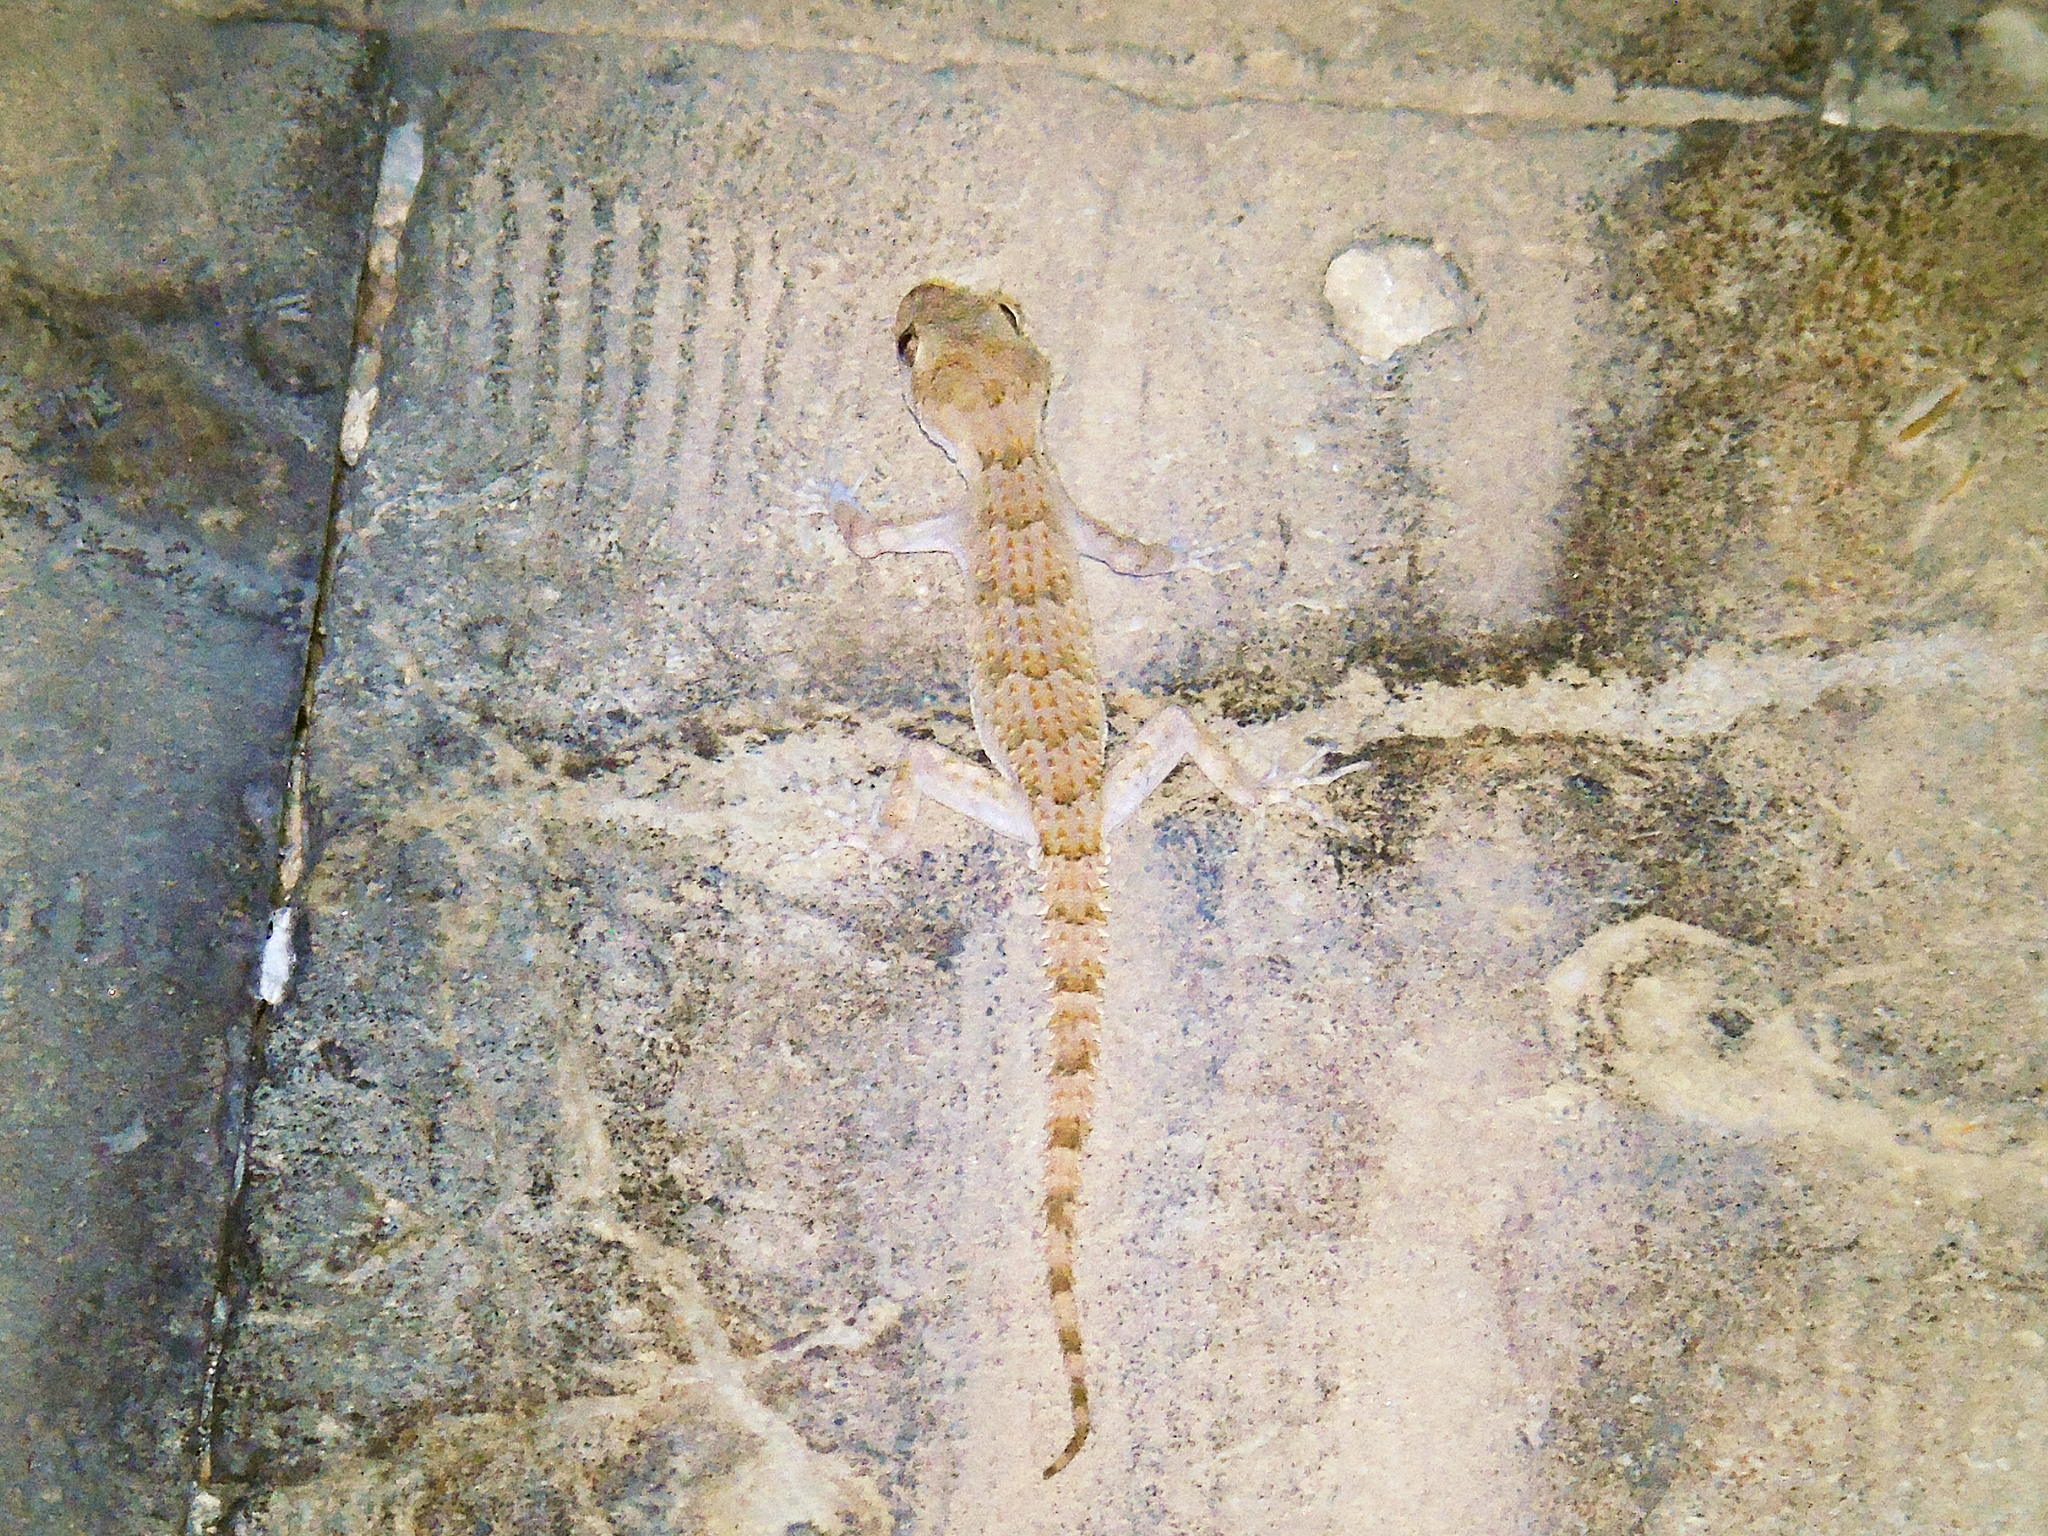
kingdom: Animalia
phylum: Chordata
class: Squamata
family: Gekkonidae
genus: Mediodactylus
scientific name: Mediodactylus orientalis
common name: Mediterranean thin-toed gecko
